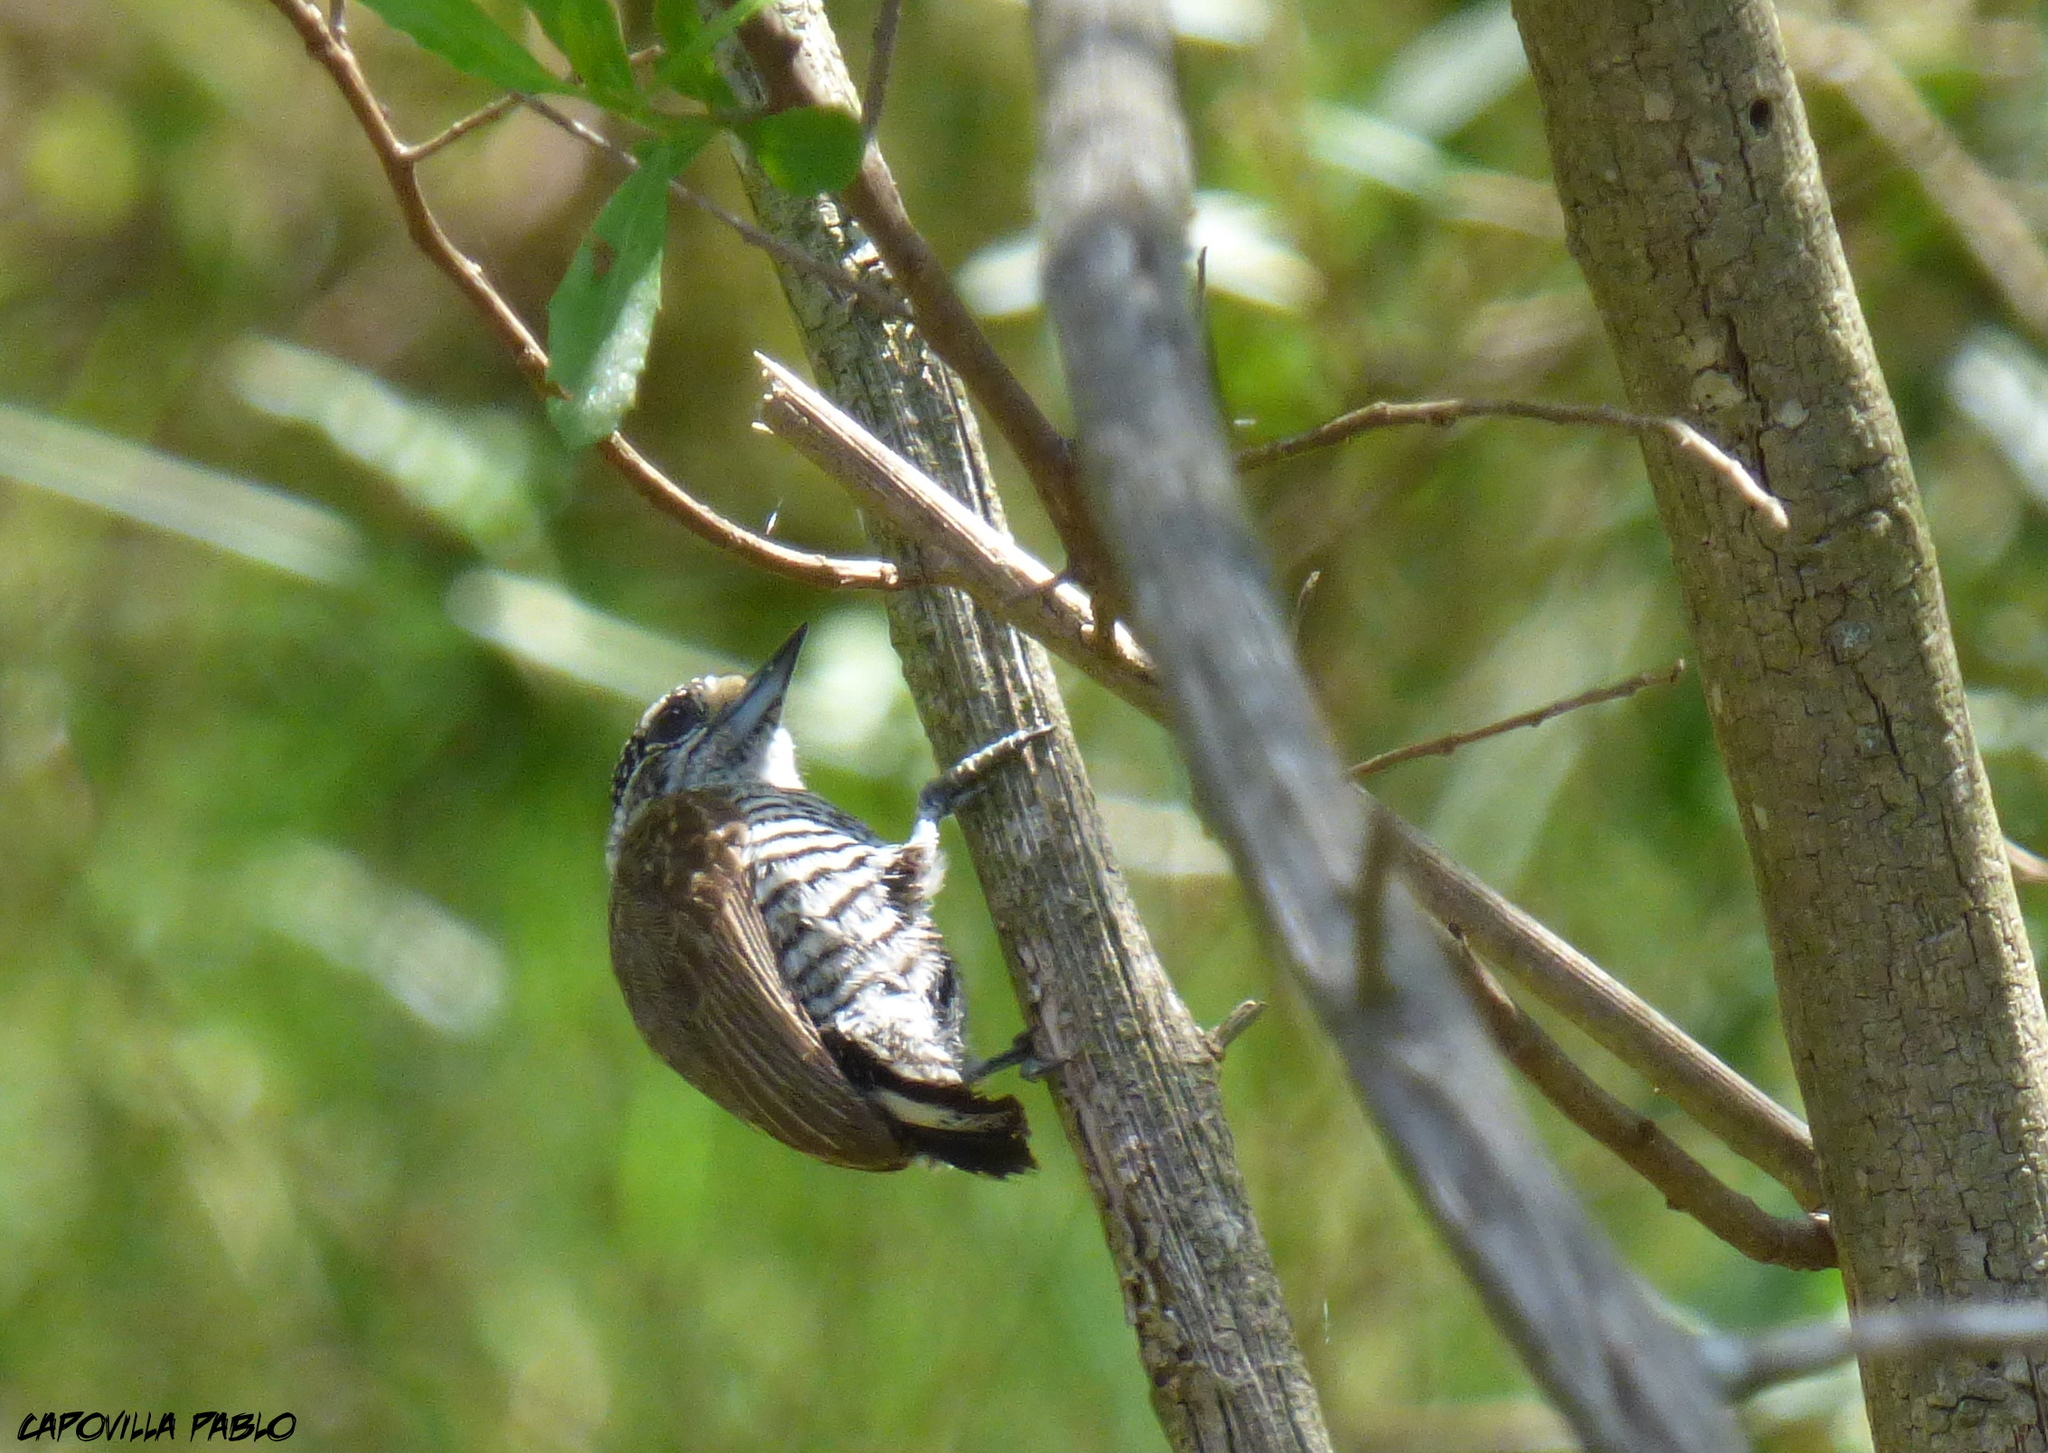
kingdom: Animalia
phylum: Chordata
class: Aves
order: Piciformes
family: Picidae
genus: Picumnus
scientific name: Picumnus cirratus
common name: White-barred piculet
